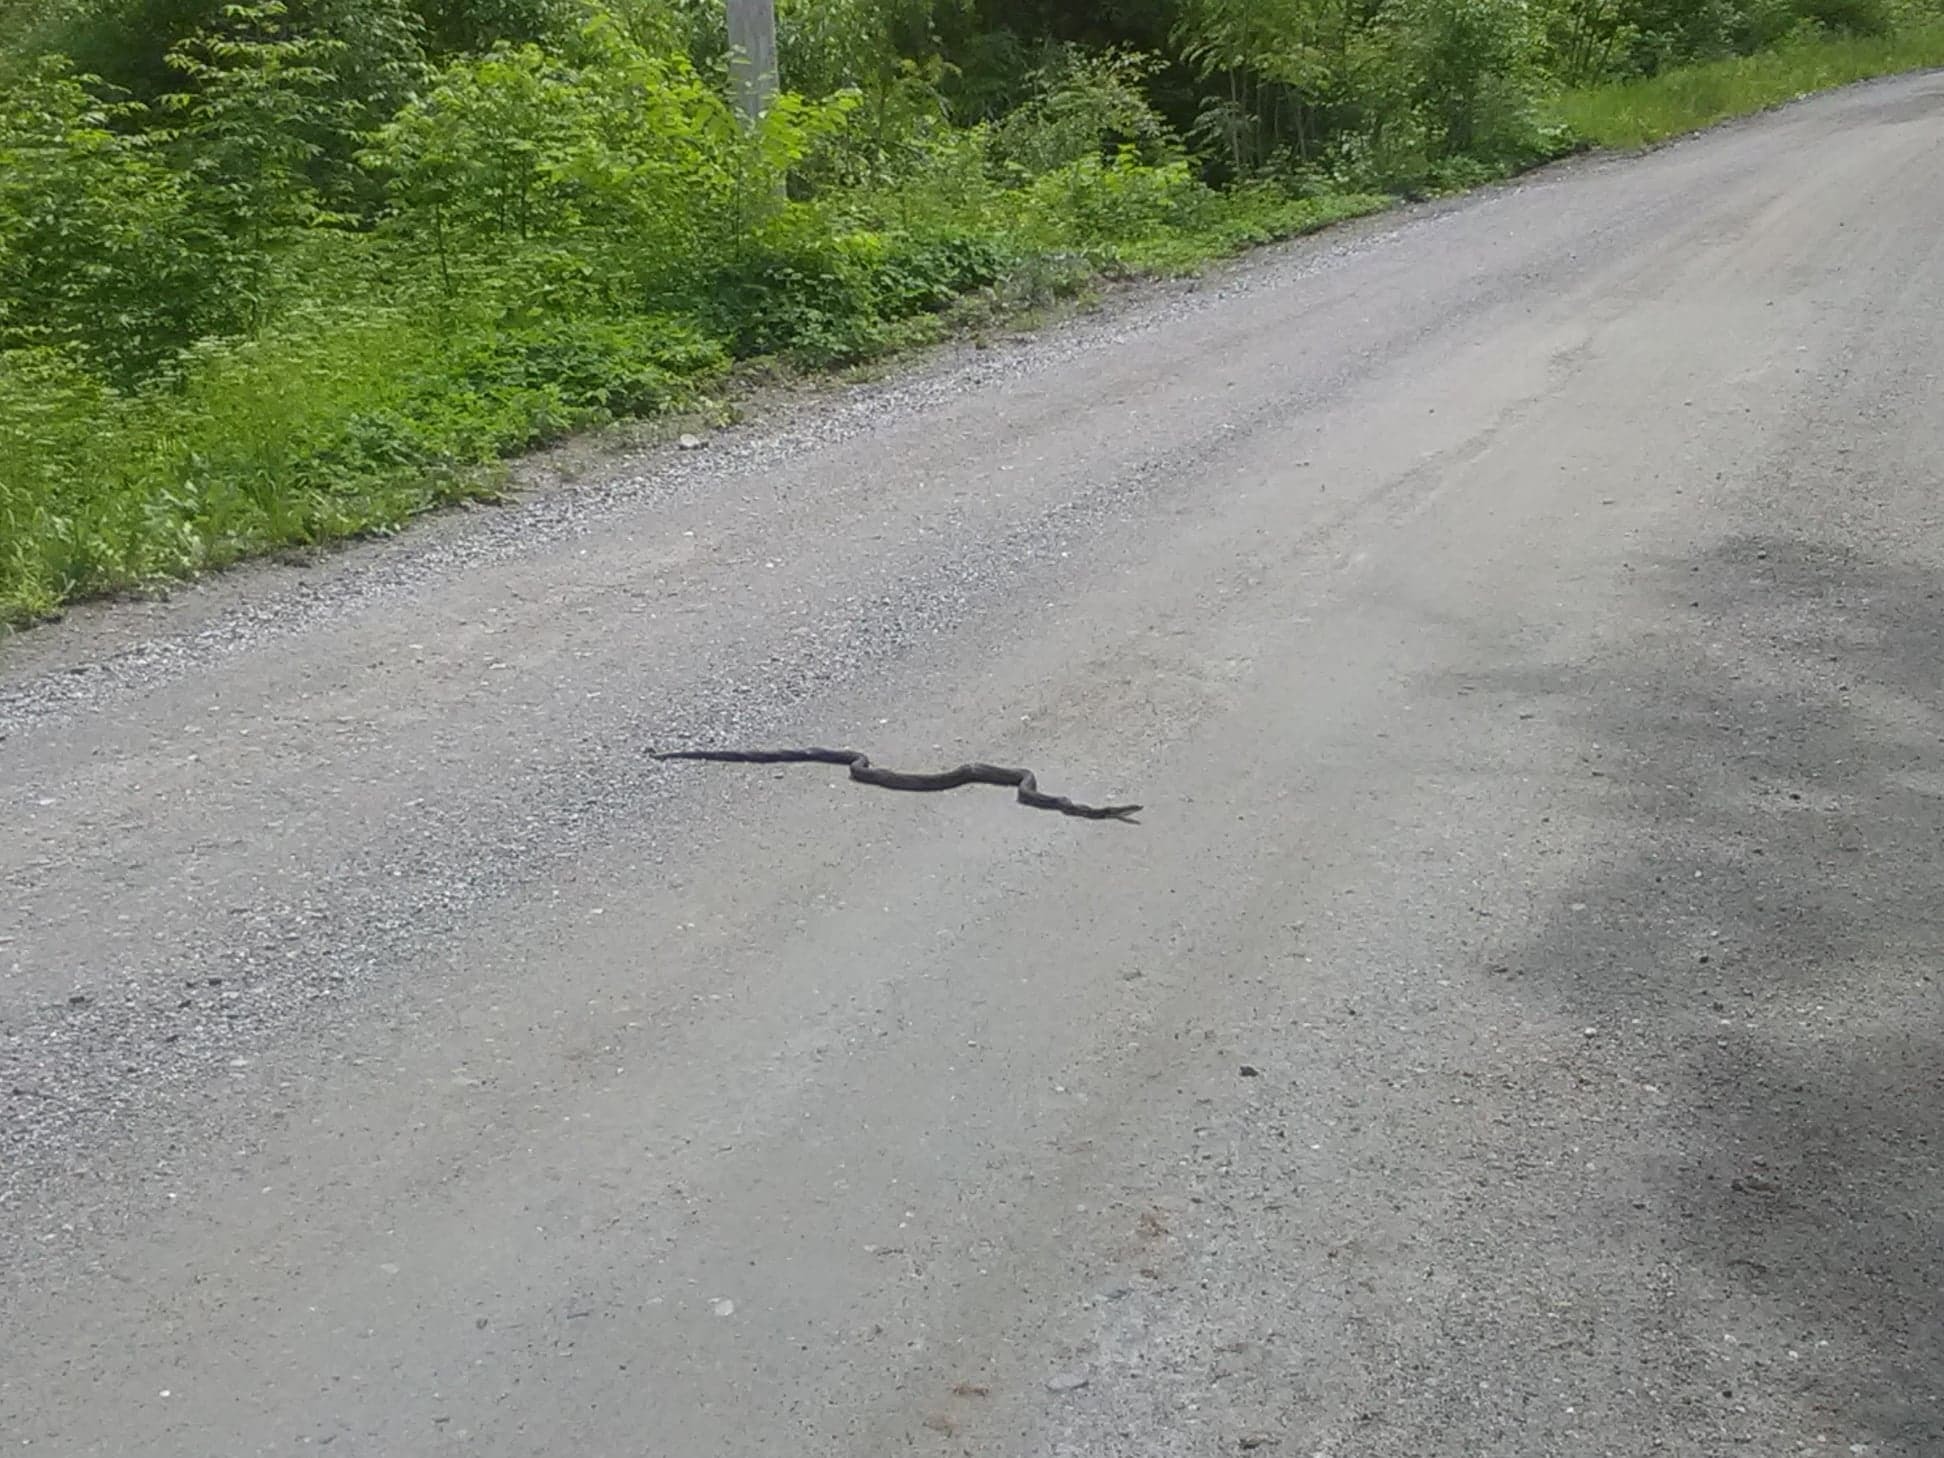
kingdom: Animalia
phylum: Chordata
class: Squamata
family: Colubridae
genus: Pantherophis
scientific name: Pantherophis alleghaniensis
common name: Eastern rat snake
